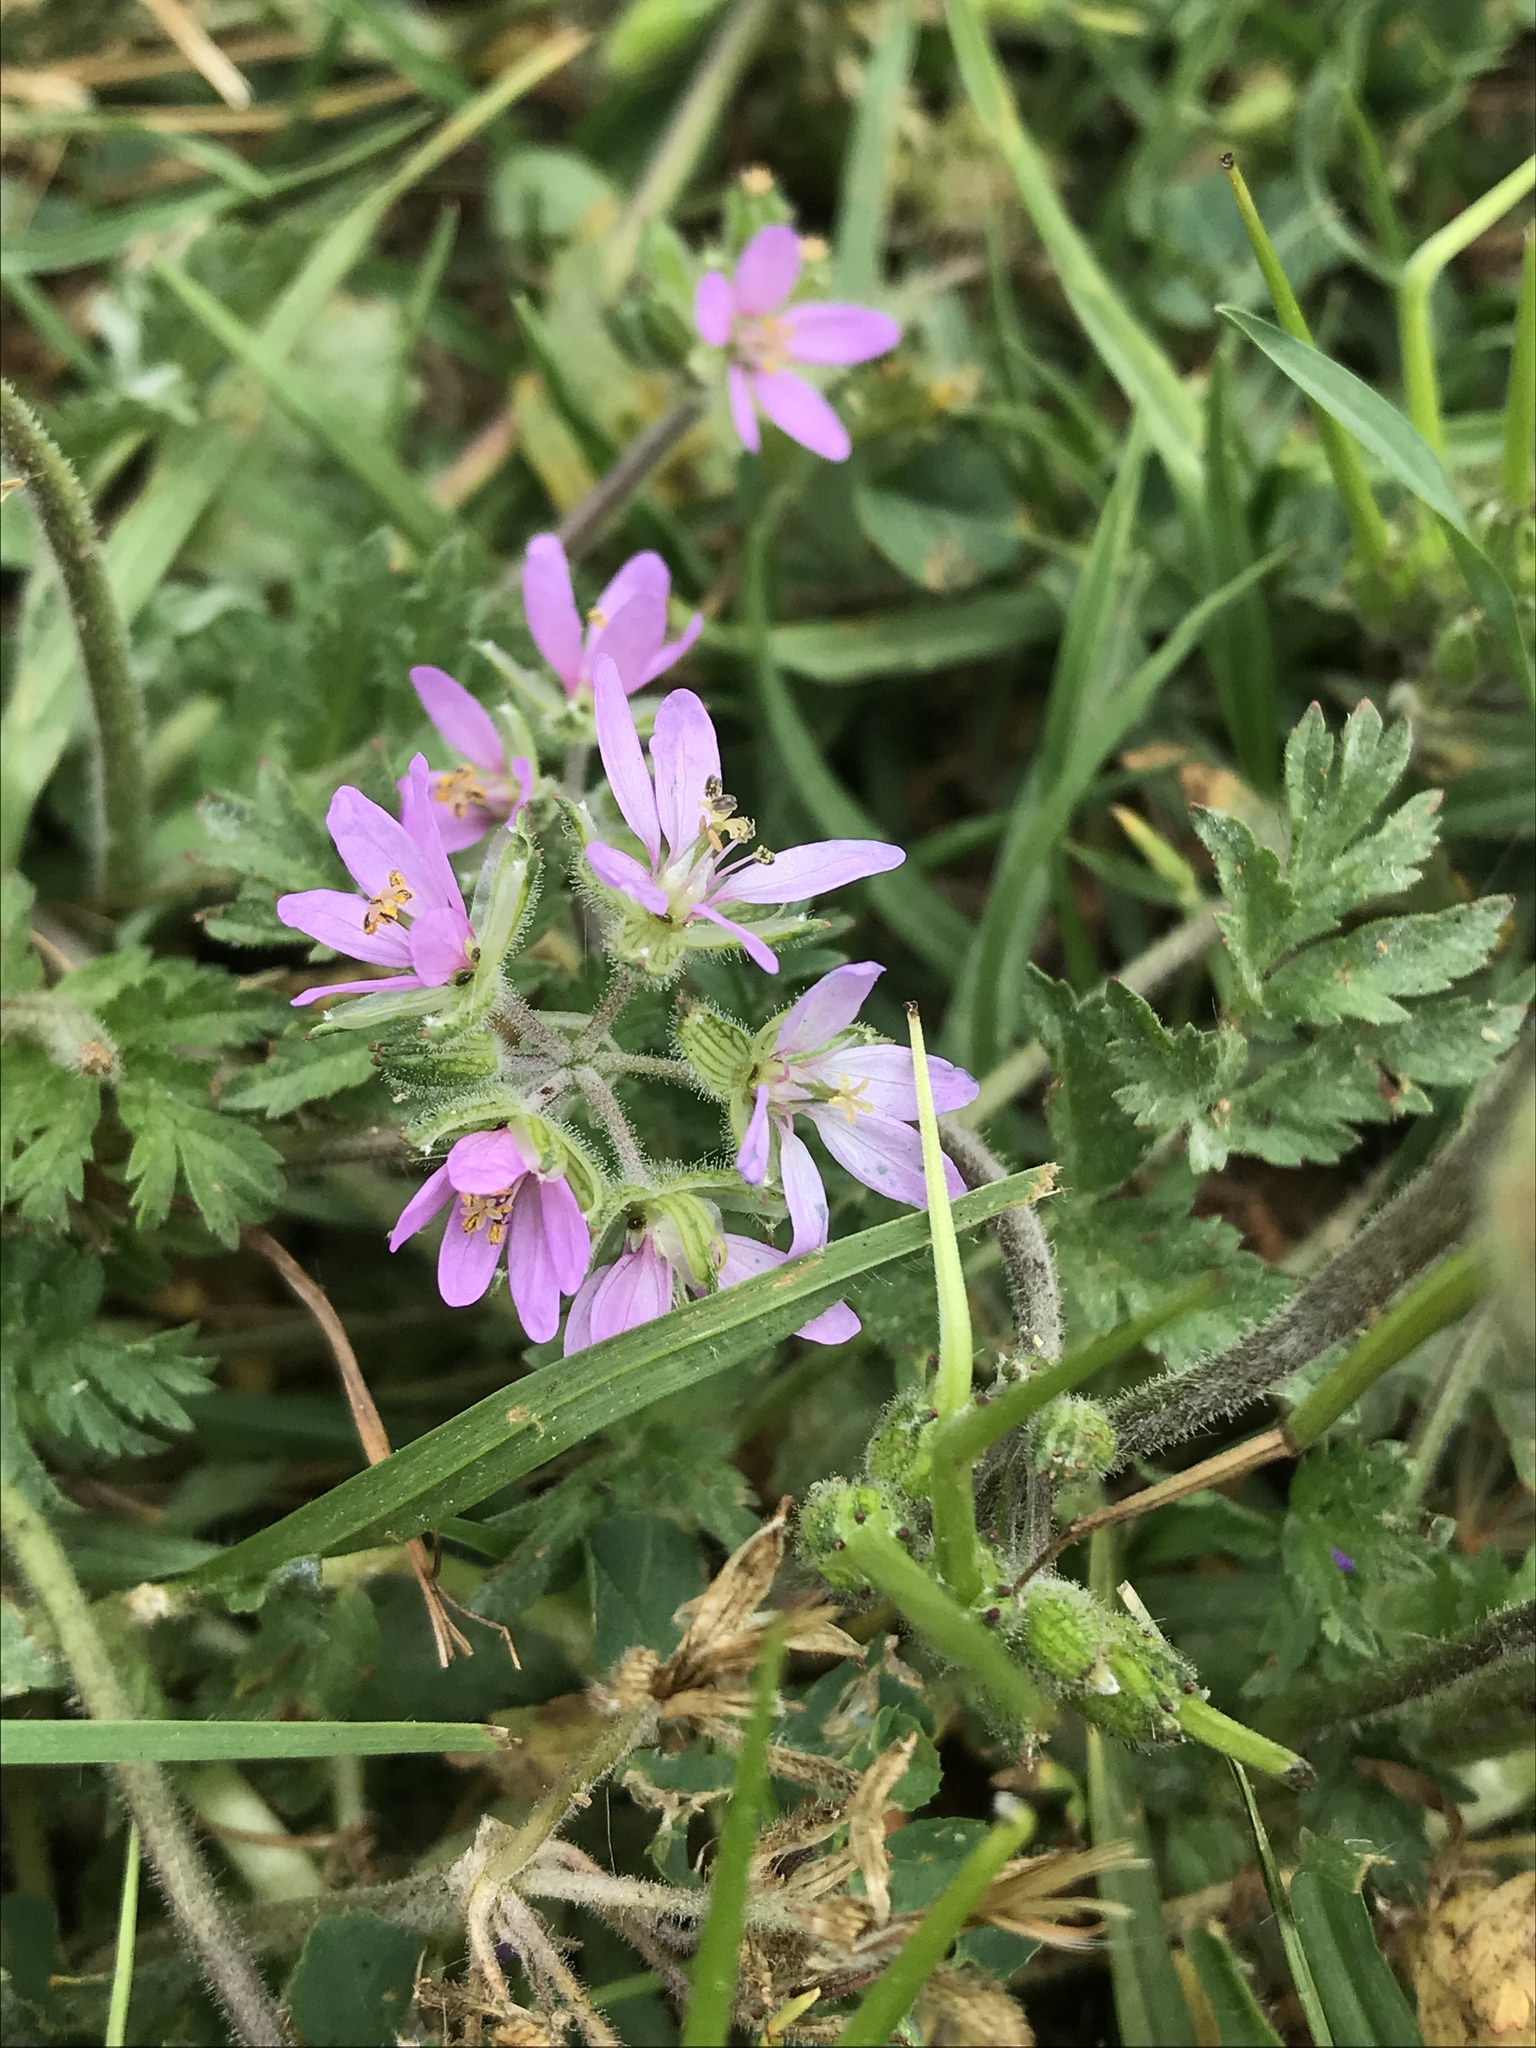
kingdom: Plantae
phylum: Tracheophyta
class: Magnoliopsida
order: Geraniales
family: Geraniaceae
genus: Erodium
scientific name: Erodium moschatum
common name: Musk stork's-bill
